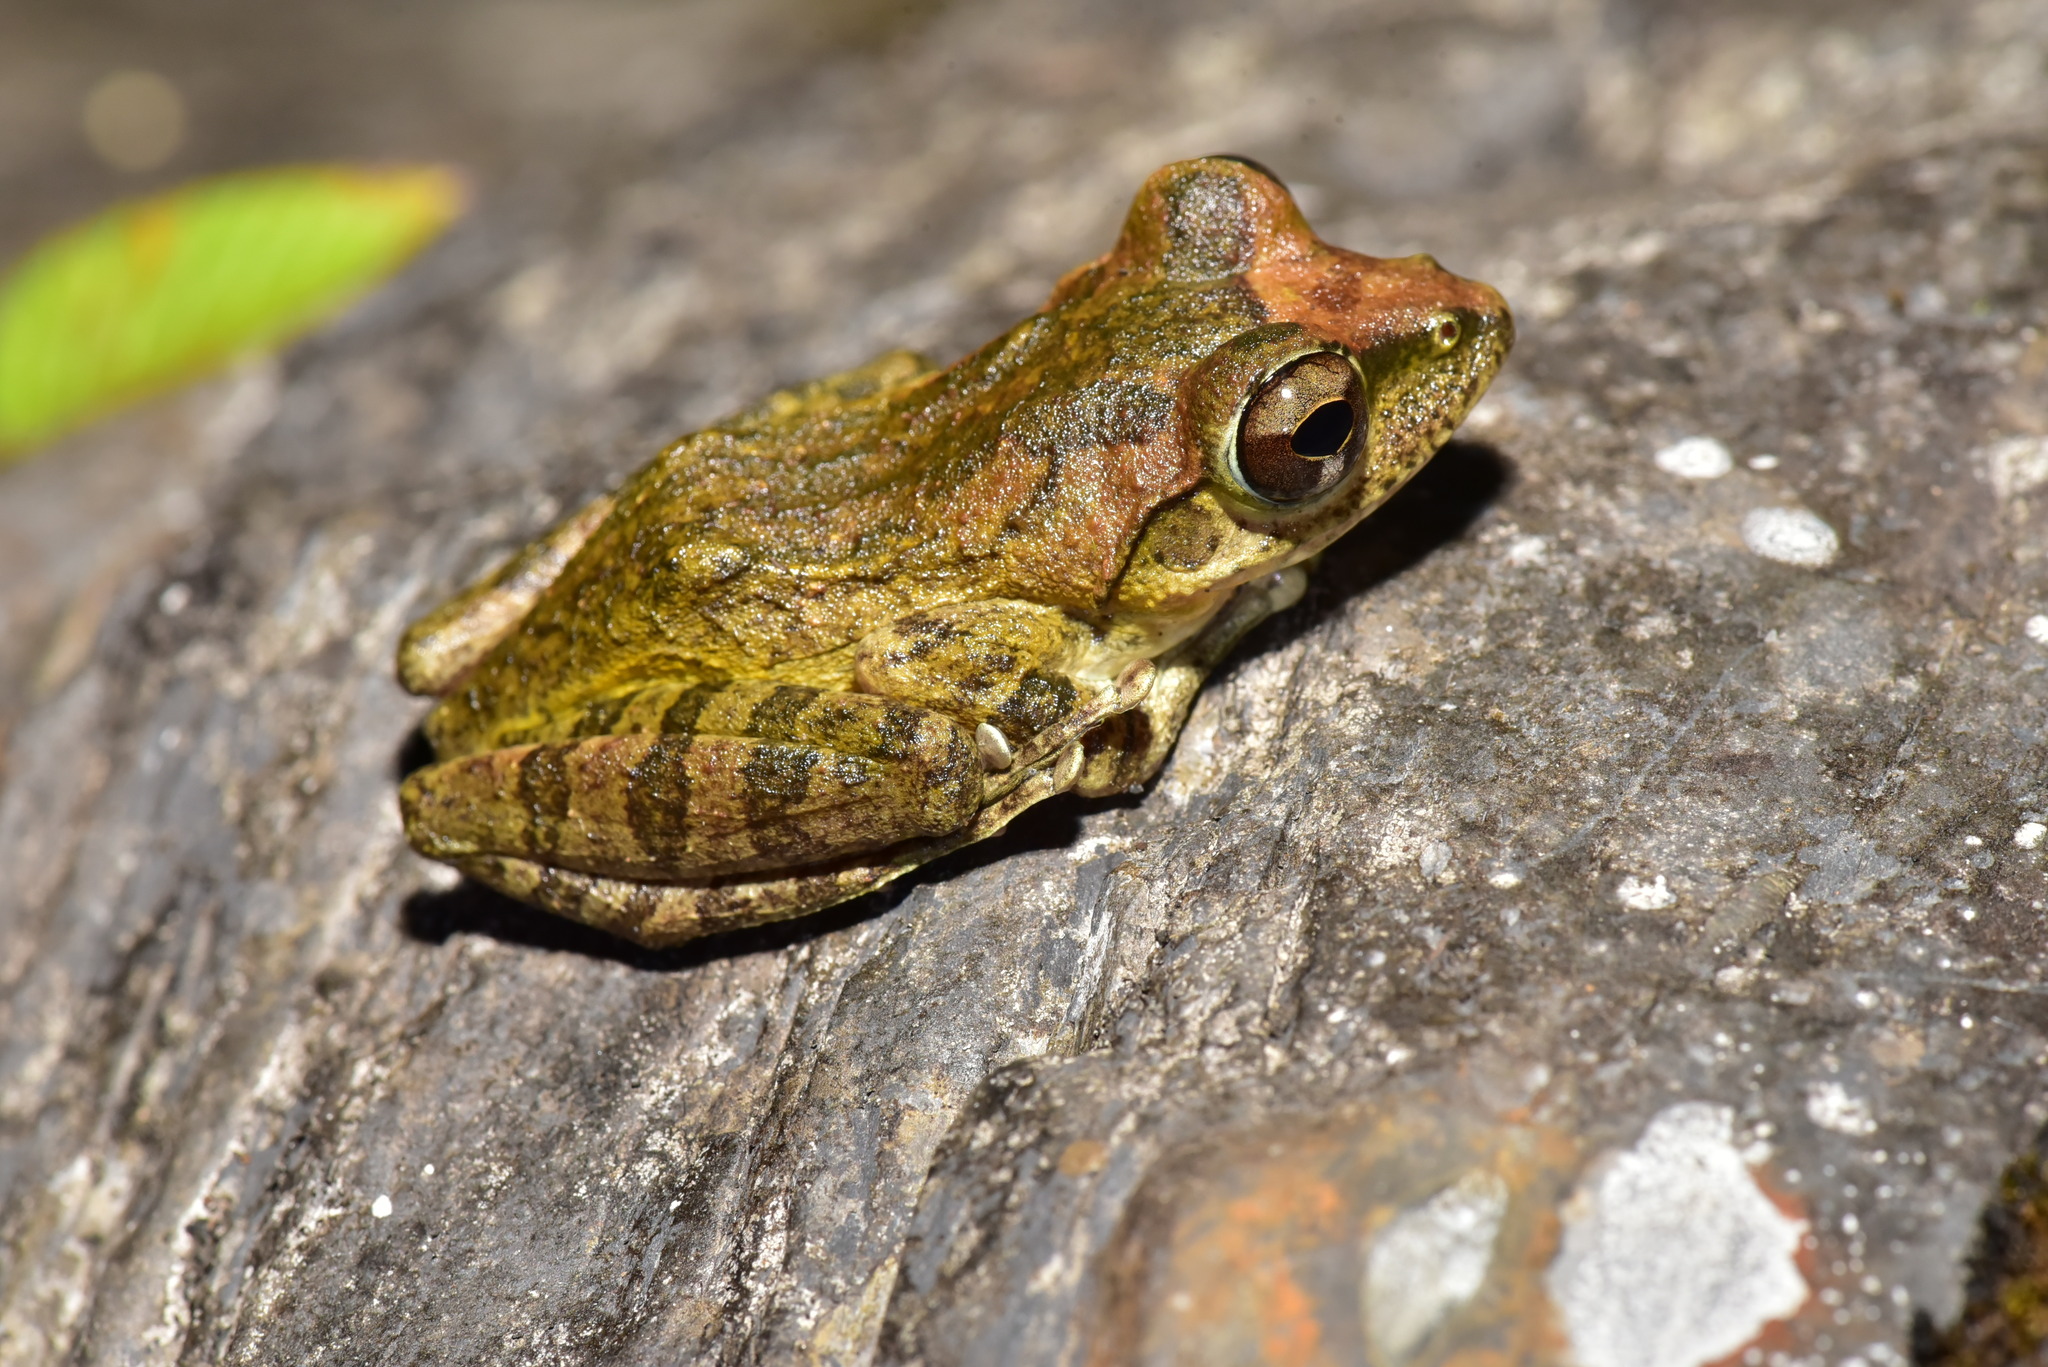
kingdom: Animalia
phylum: Chordata
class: Amphibia
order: Anura
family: Rhacophoridae
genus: Buergeria
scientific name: Buergeria robusta
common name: Brown treefrog
